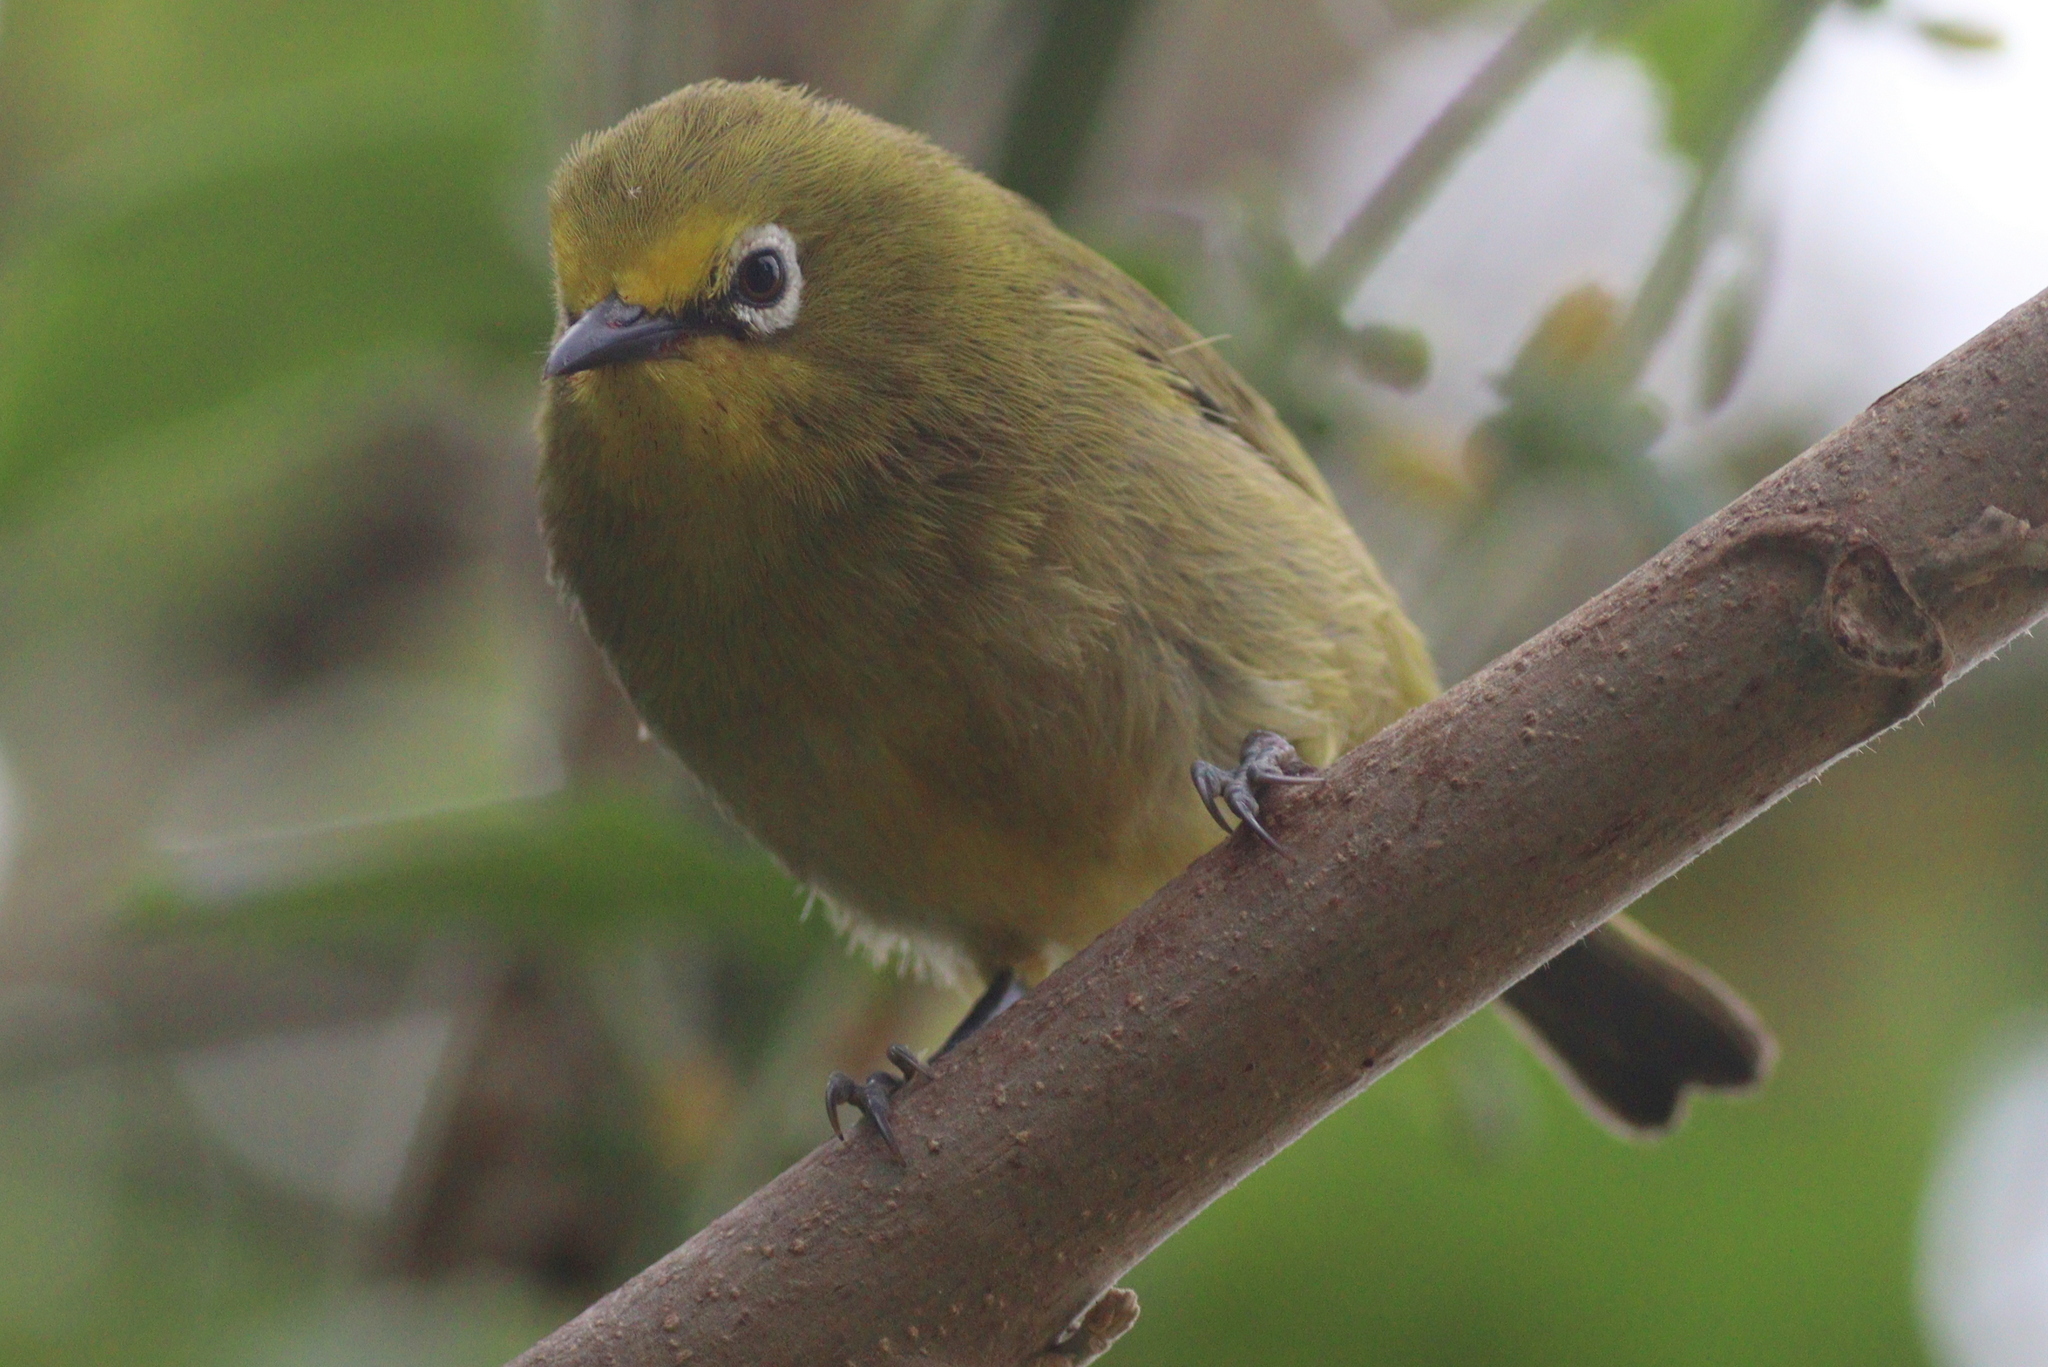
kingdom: Animalia
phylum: Chordata
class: Aves
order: Passeriformes
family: Zosteropidae
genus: Zosterops
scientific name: Zosterops senegalensis
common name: African yellow white-eye
